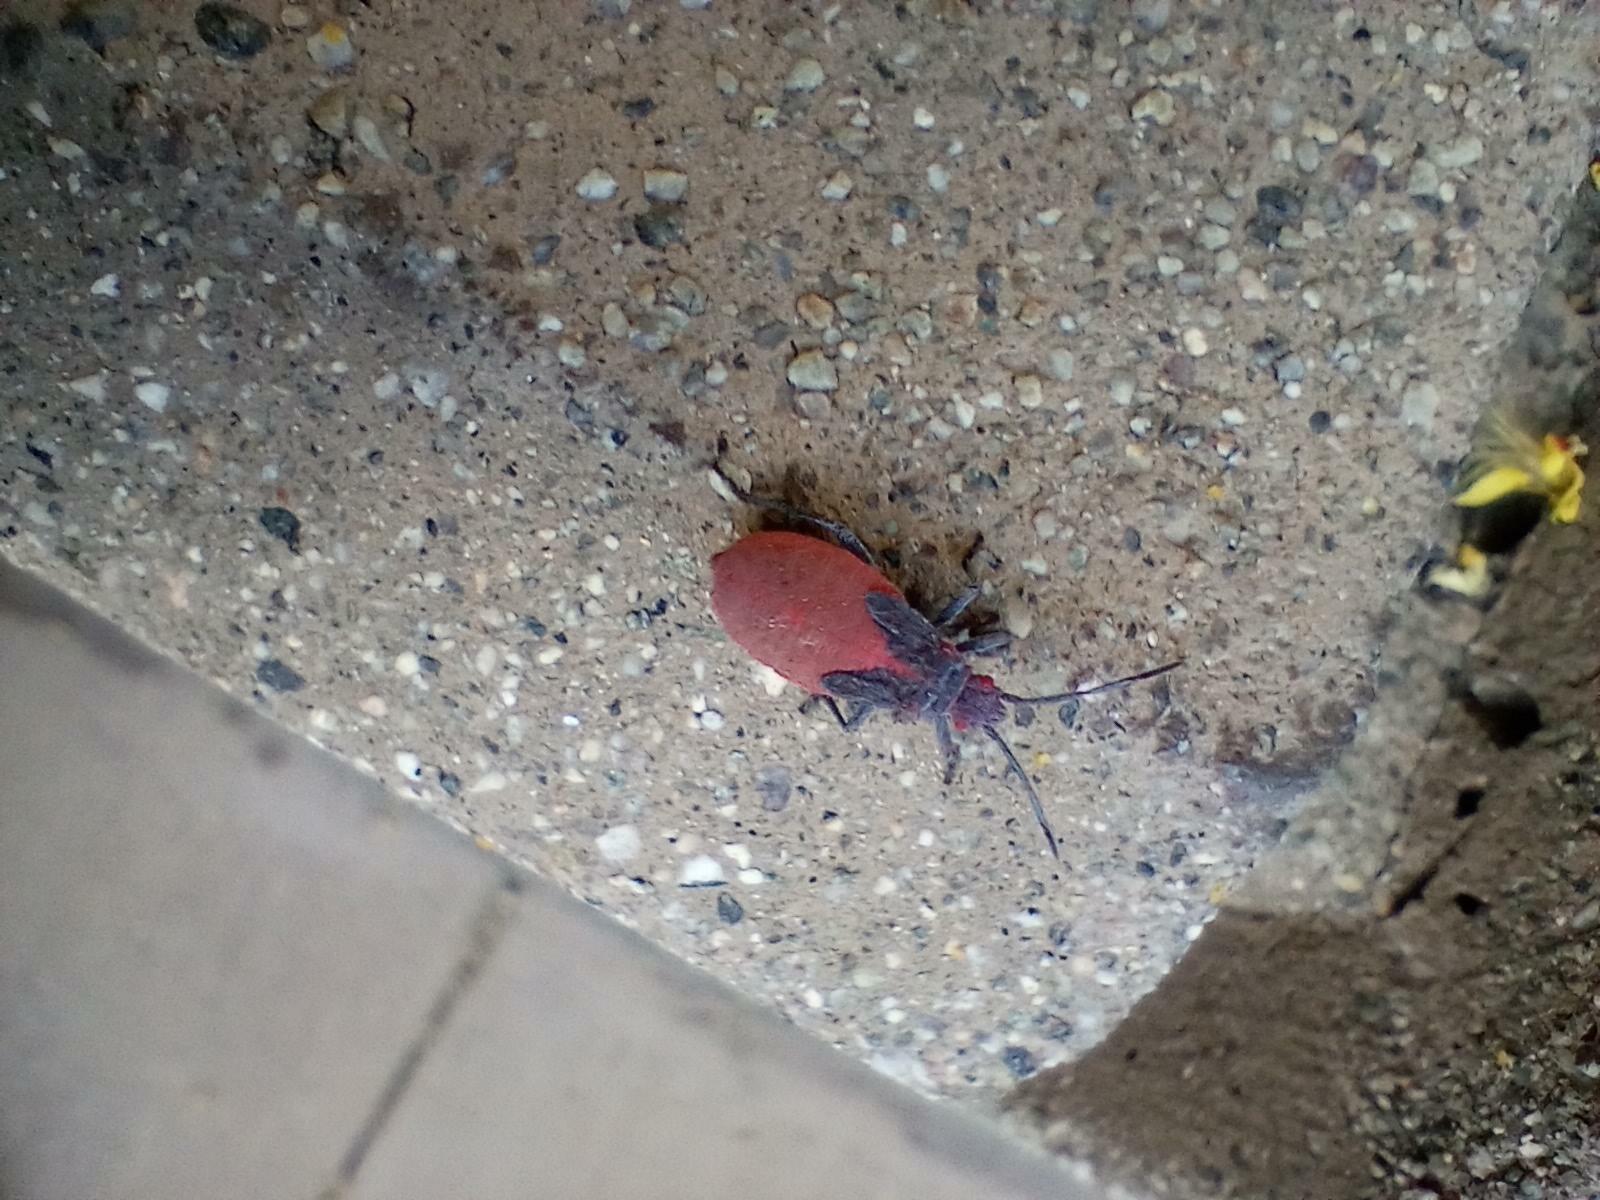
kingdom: Animalia
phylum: Arthropoda
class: Insecta
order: Hemiptera
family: Rhopalidae
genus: Jadera
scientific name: Jadera haematoloma
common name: Red-shouldered bug
